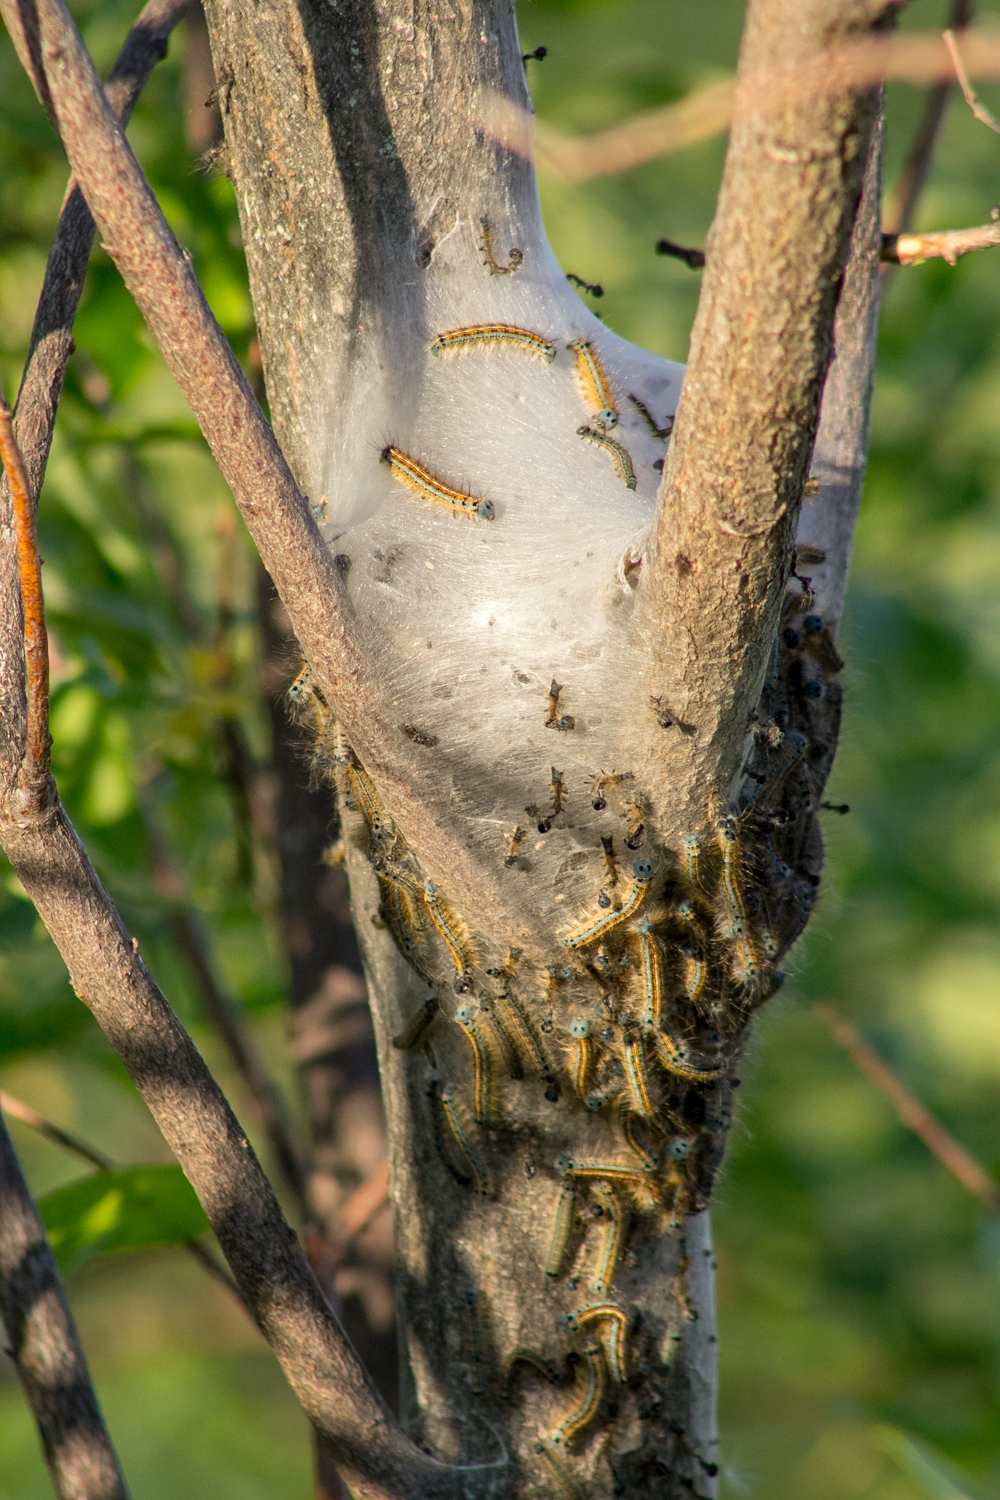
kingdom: Animalia
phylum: Arthropoda
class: Insecta
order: Lepidoptera
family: Lasiocampidae
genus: Malacosoma
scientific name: Malacosoma neustria
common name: The lackey
